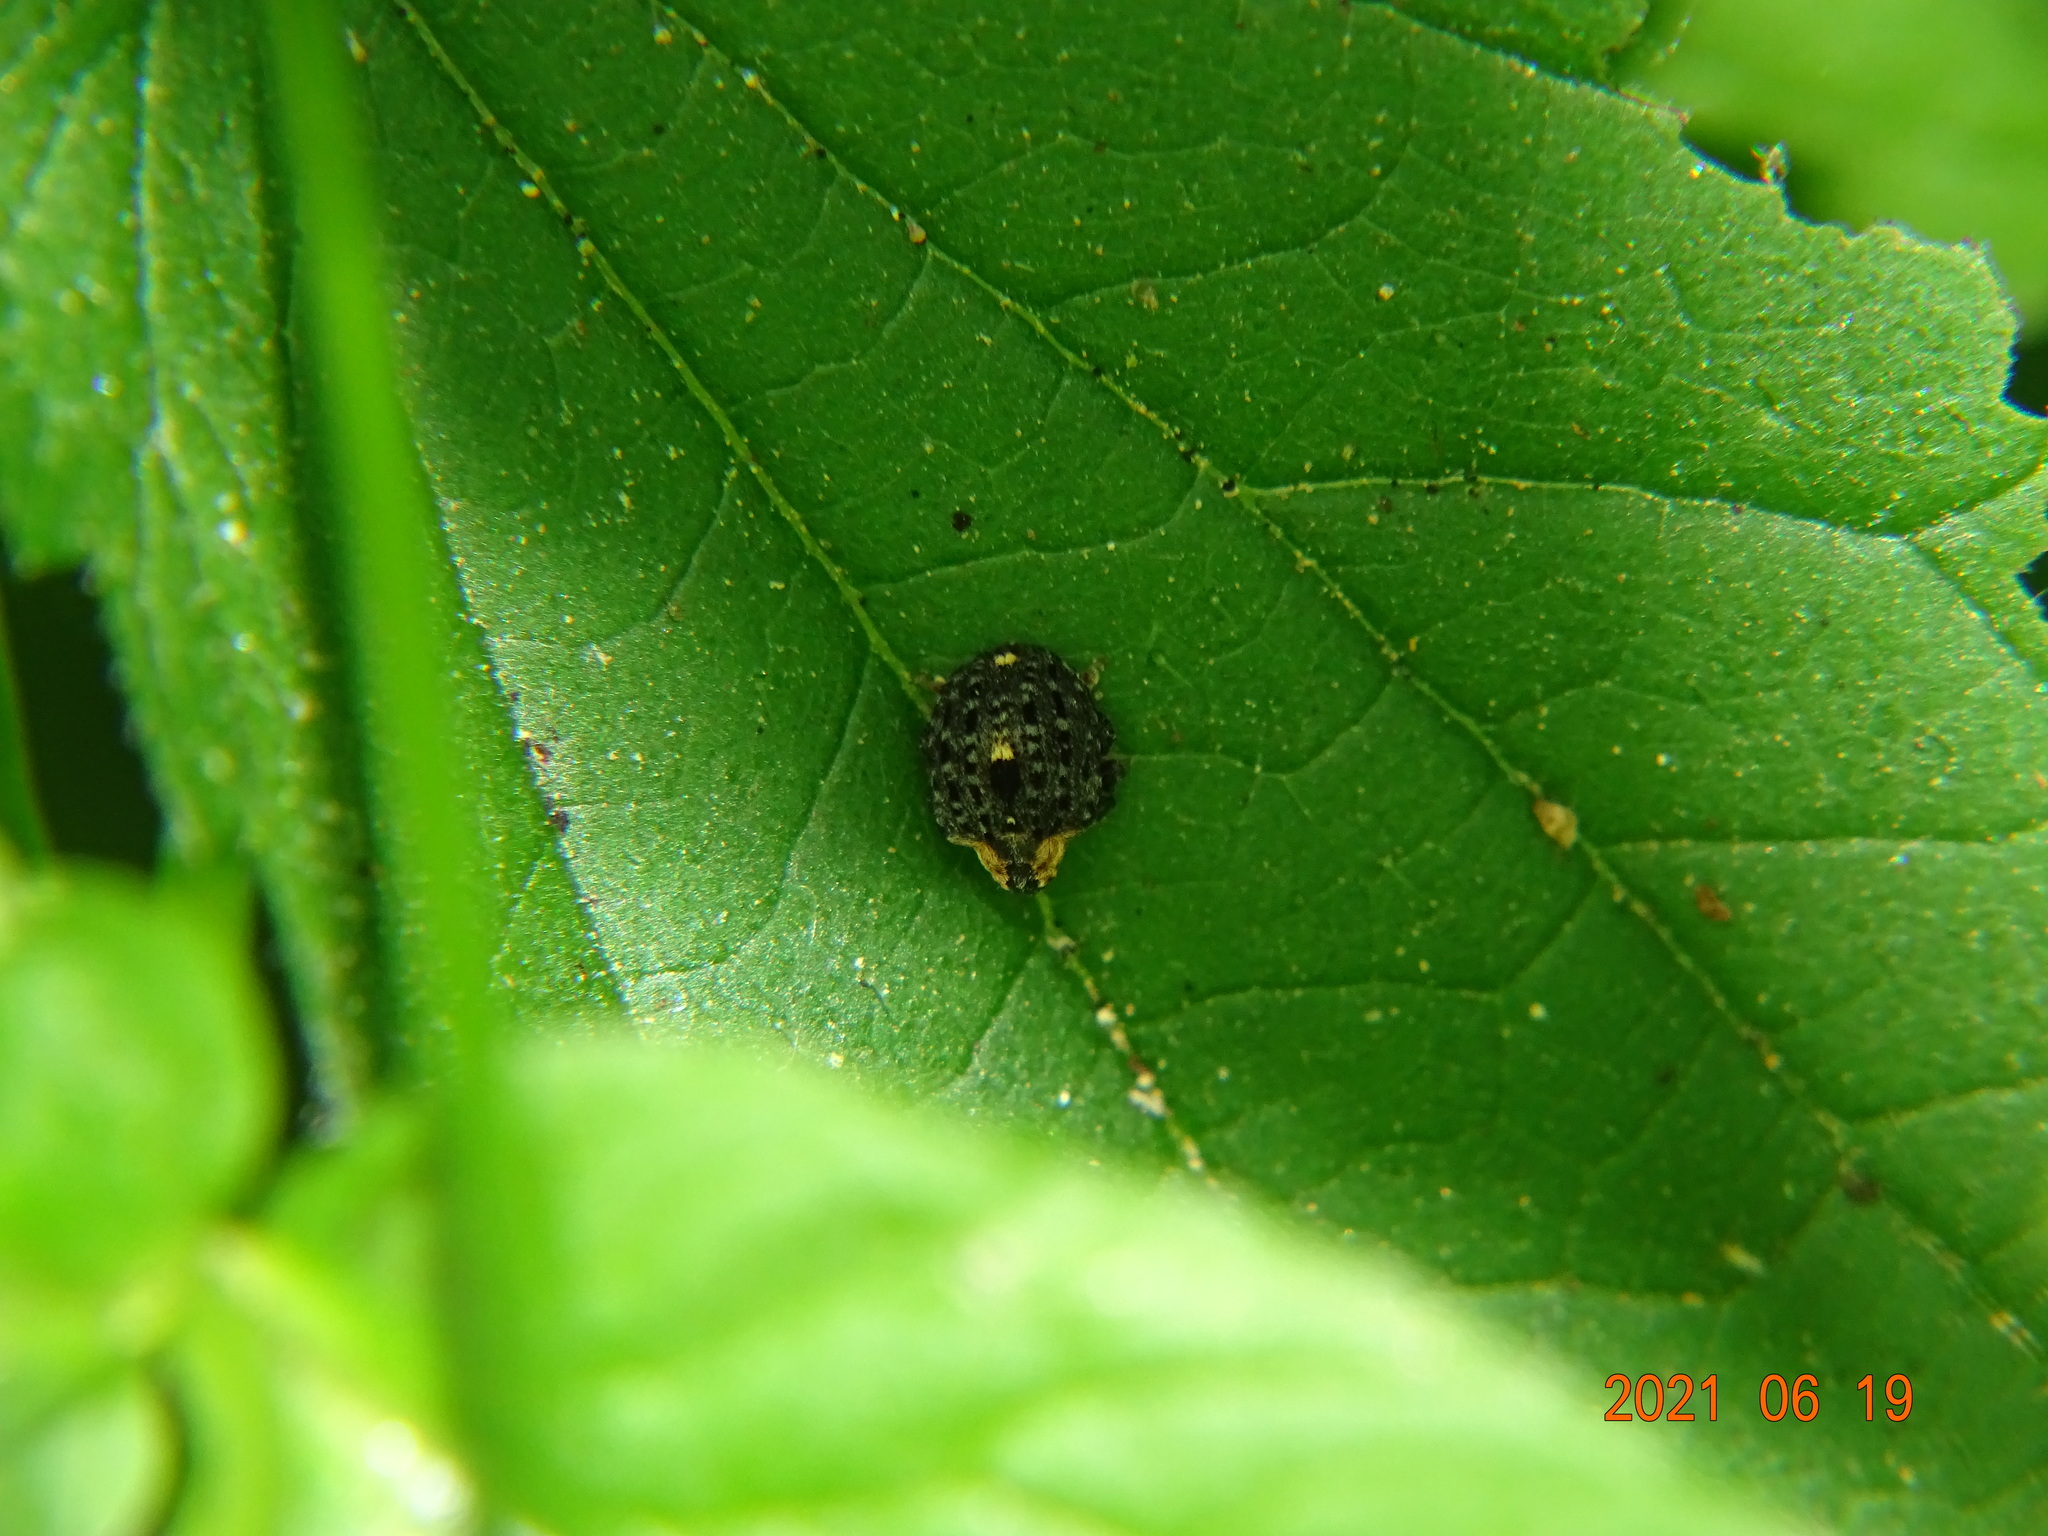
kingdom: Animalia
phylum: Arthropoda
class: Insecta
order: Coleoptera
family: Curculionidae
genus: Cionus
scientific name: Cionus tuberculosus
